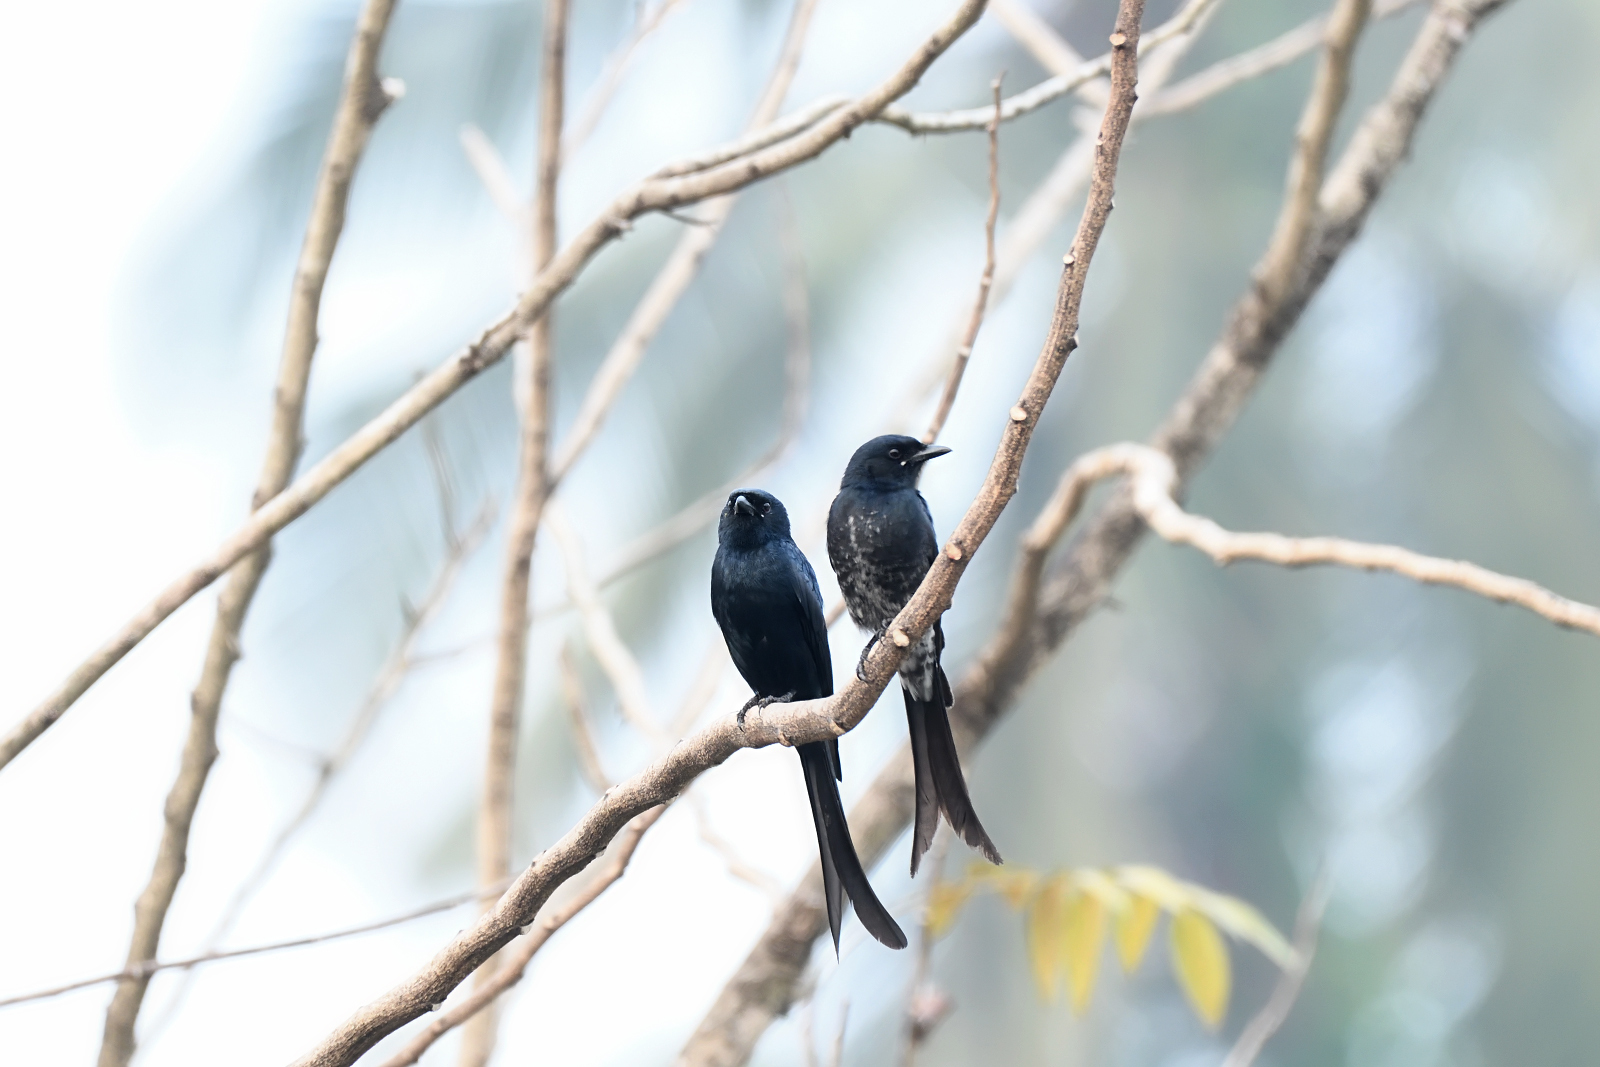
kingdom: Animalia
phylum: Chordata
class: Aves
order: Passeriformes
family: Dicruridae
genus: Dicrurus
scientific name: Dicrurus macrocercus
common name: Black drongo
